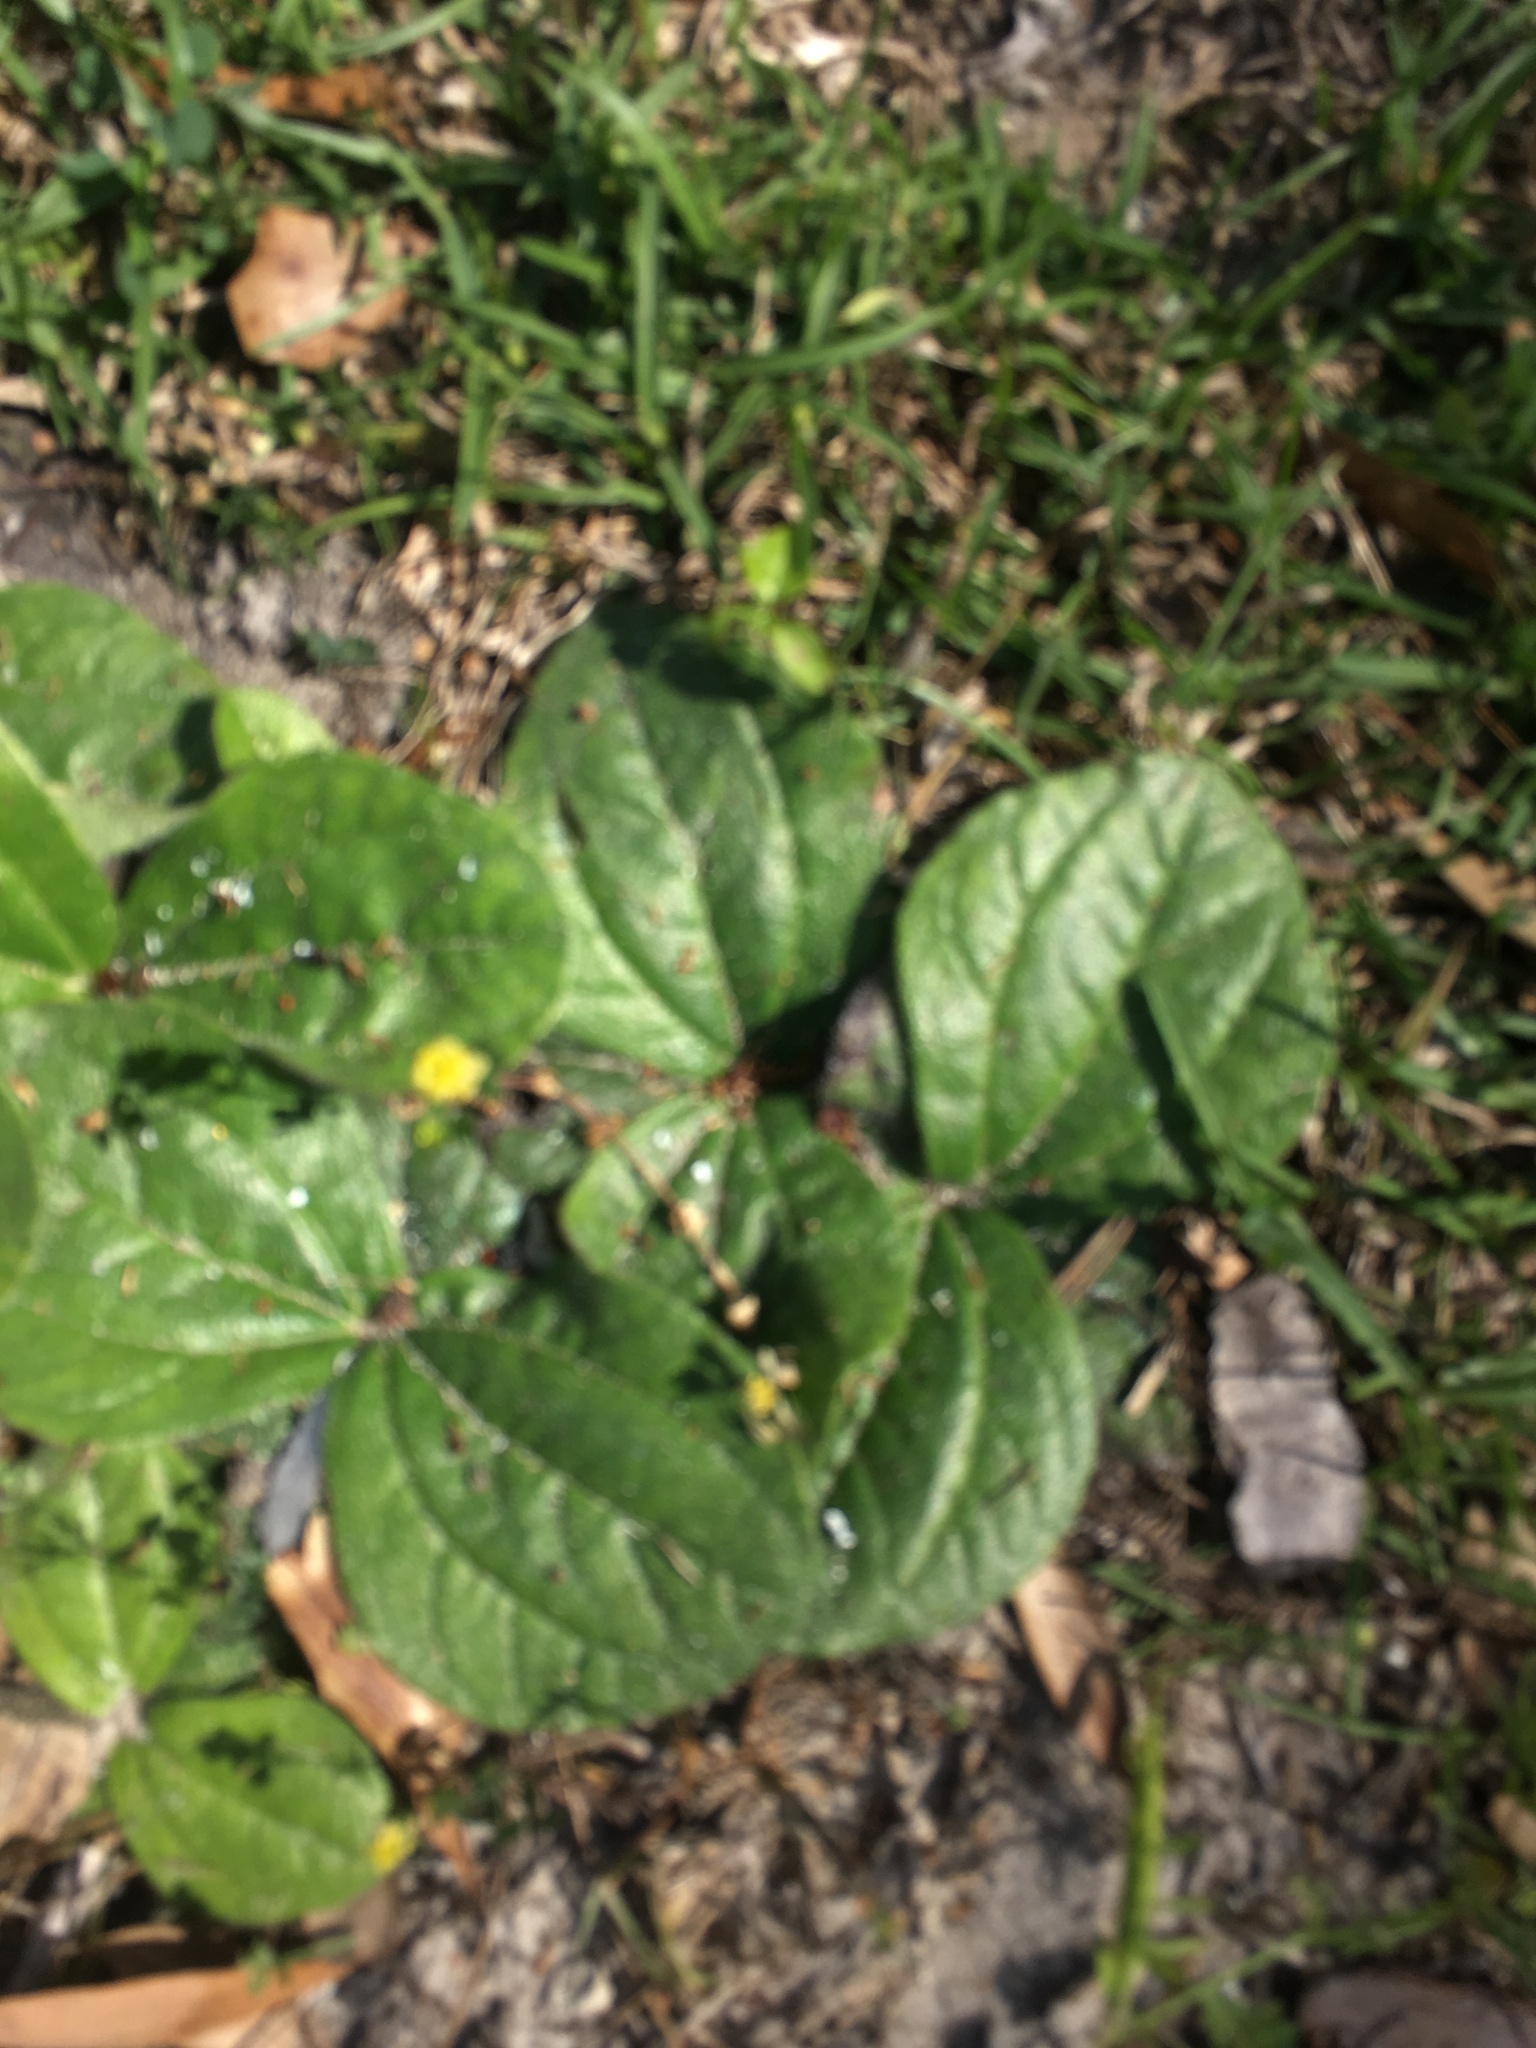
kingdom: Plantae
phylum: Tracheophyta
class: Magnoliopsida
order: Asterales
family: Asteraceae
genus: Helianthus
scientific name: Helianthus radula
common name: Pineland sunflower
